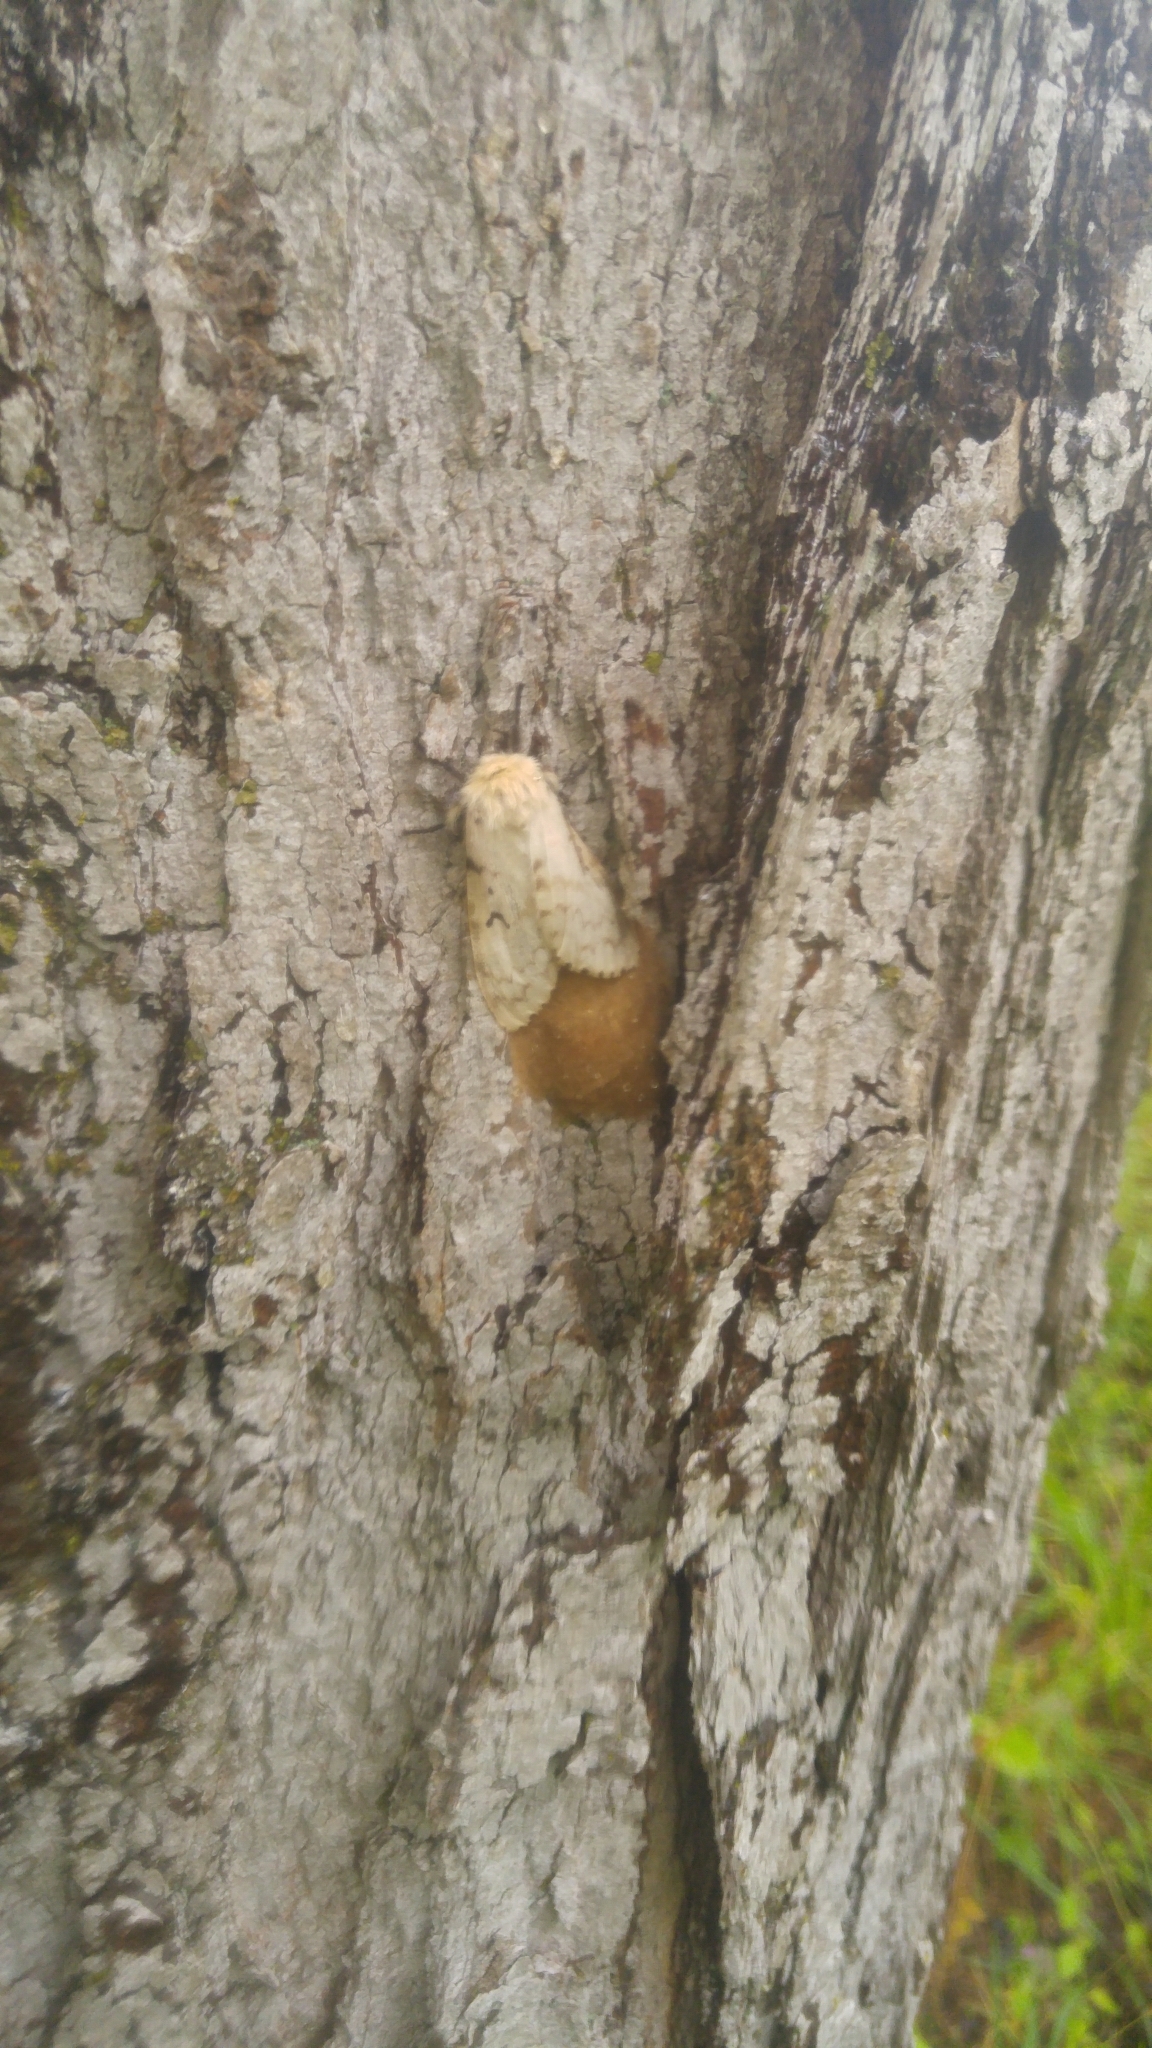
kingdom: Animalia
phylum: Arthropoda
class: Insecta
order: Lepidoptera
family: Erebidae
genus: Lymantria
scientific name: Lymantria dispar
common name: Gypsy moth
